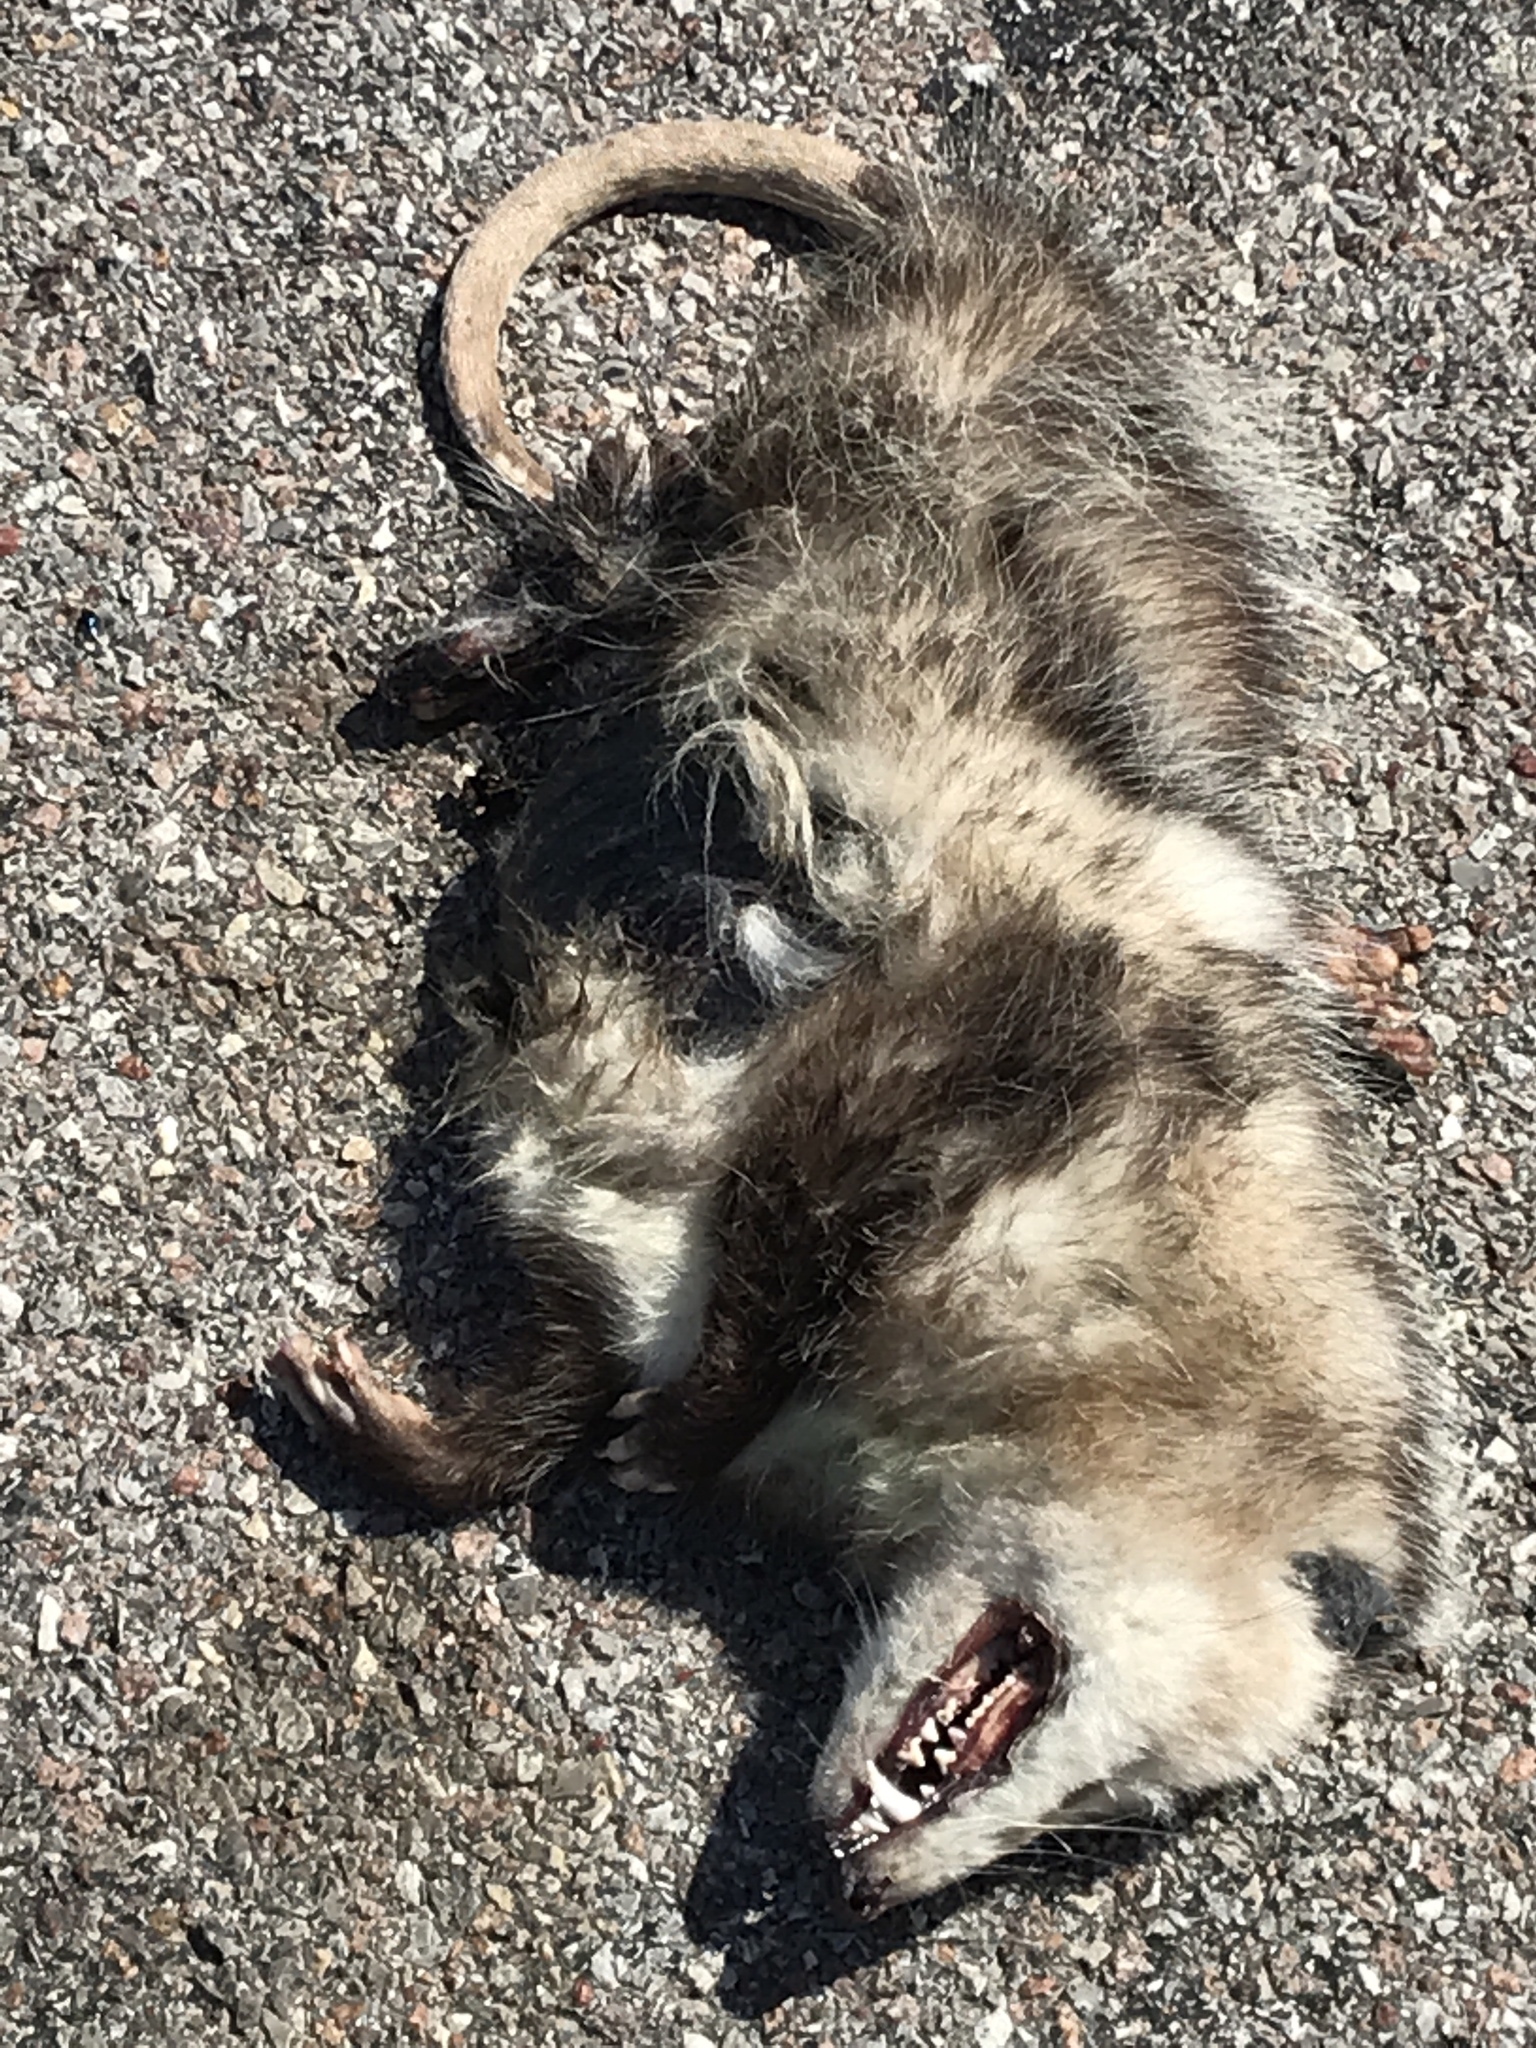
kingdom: Animalia
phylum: Chordata
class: Mammalia
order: Didelphimorphia
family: Didelphidae
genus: Didelphis
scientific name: Didelphis virginiana
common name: Virginia opossum
